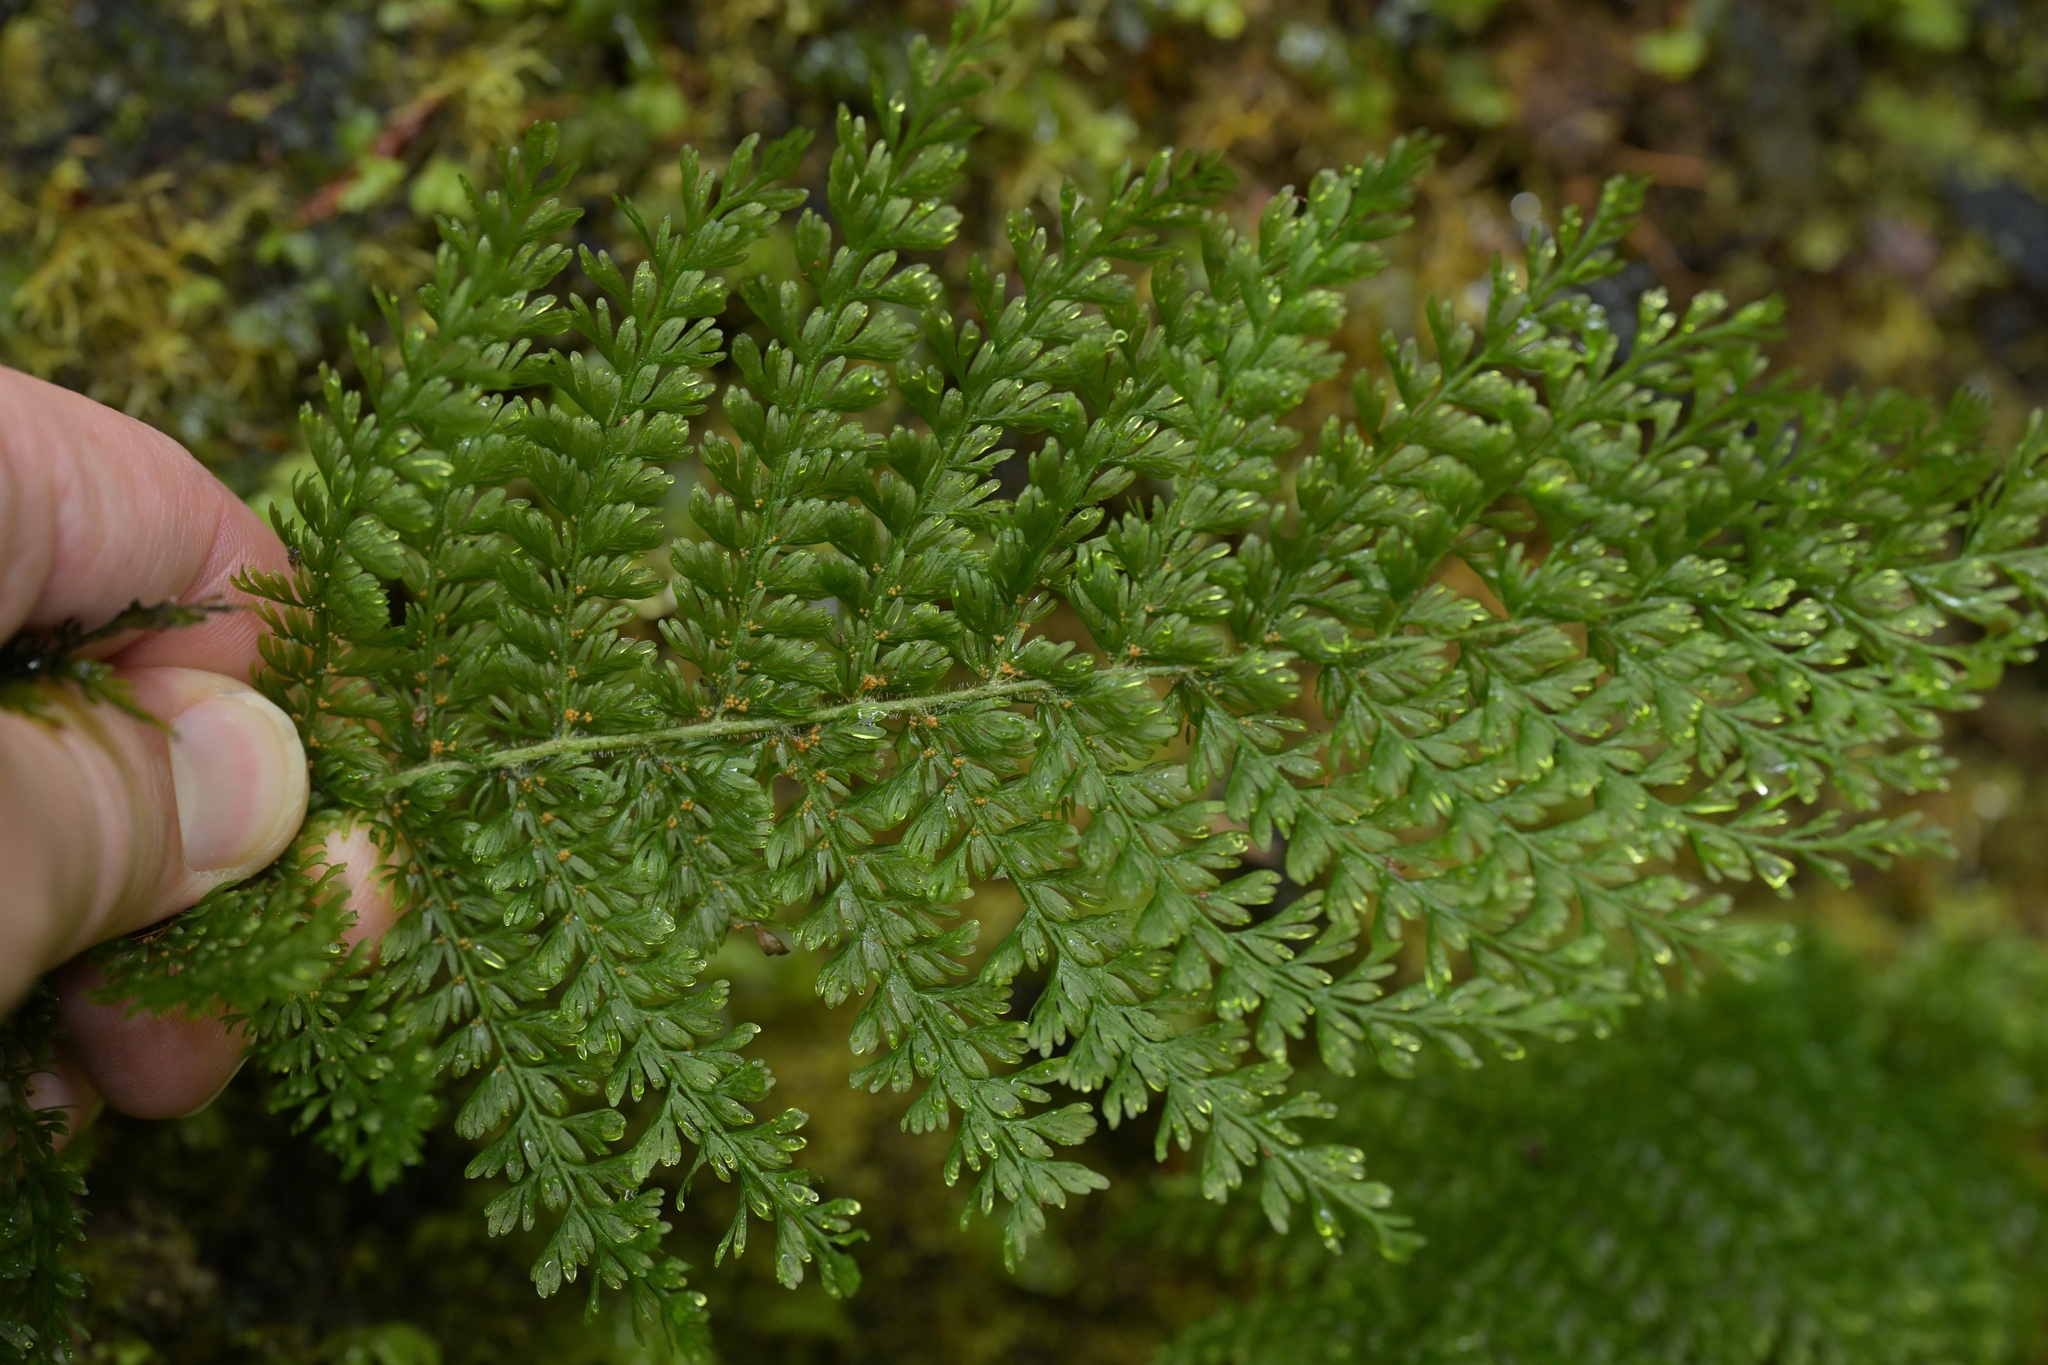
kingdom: Plantae
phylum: Tracheophyta
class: Polypodiopsida
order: Osmundales
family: Osmundaceae
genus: Leptopteris
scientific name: Leptopteris superba
